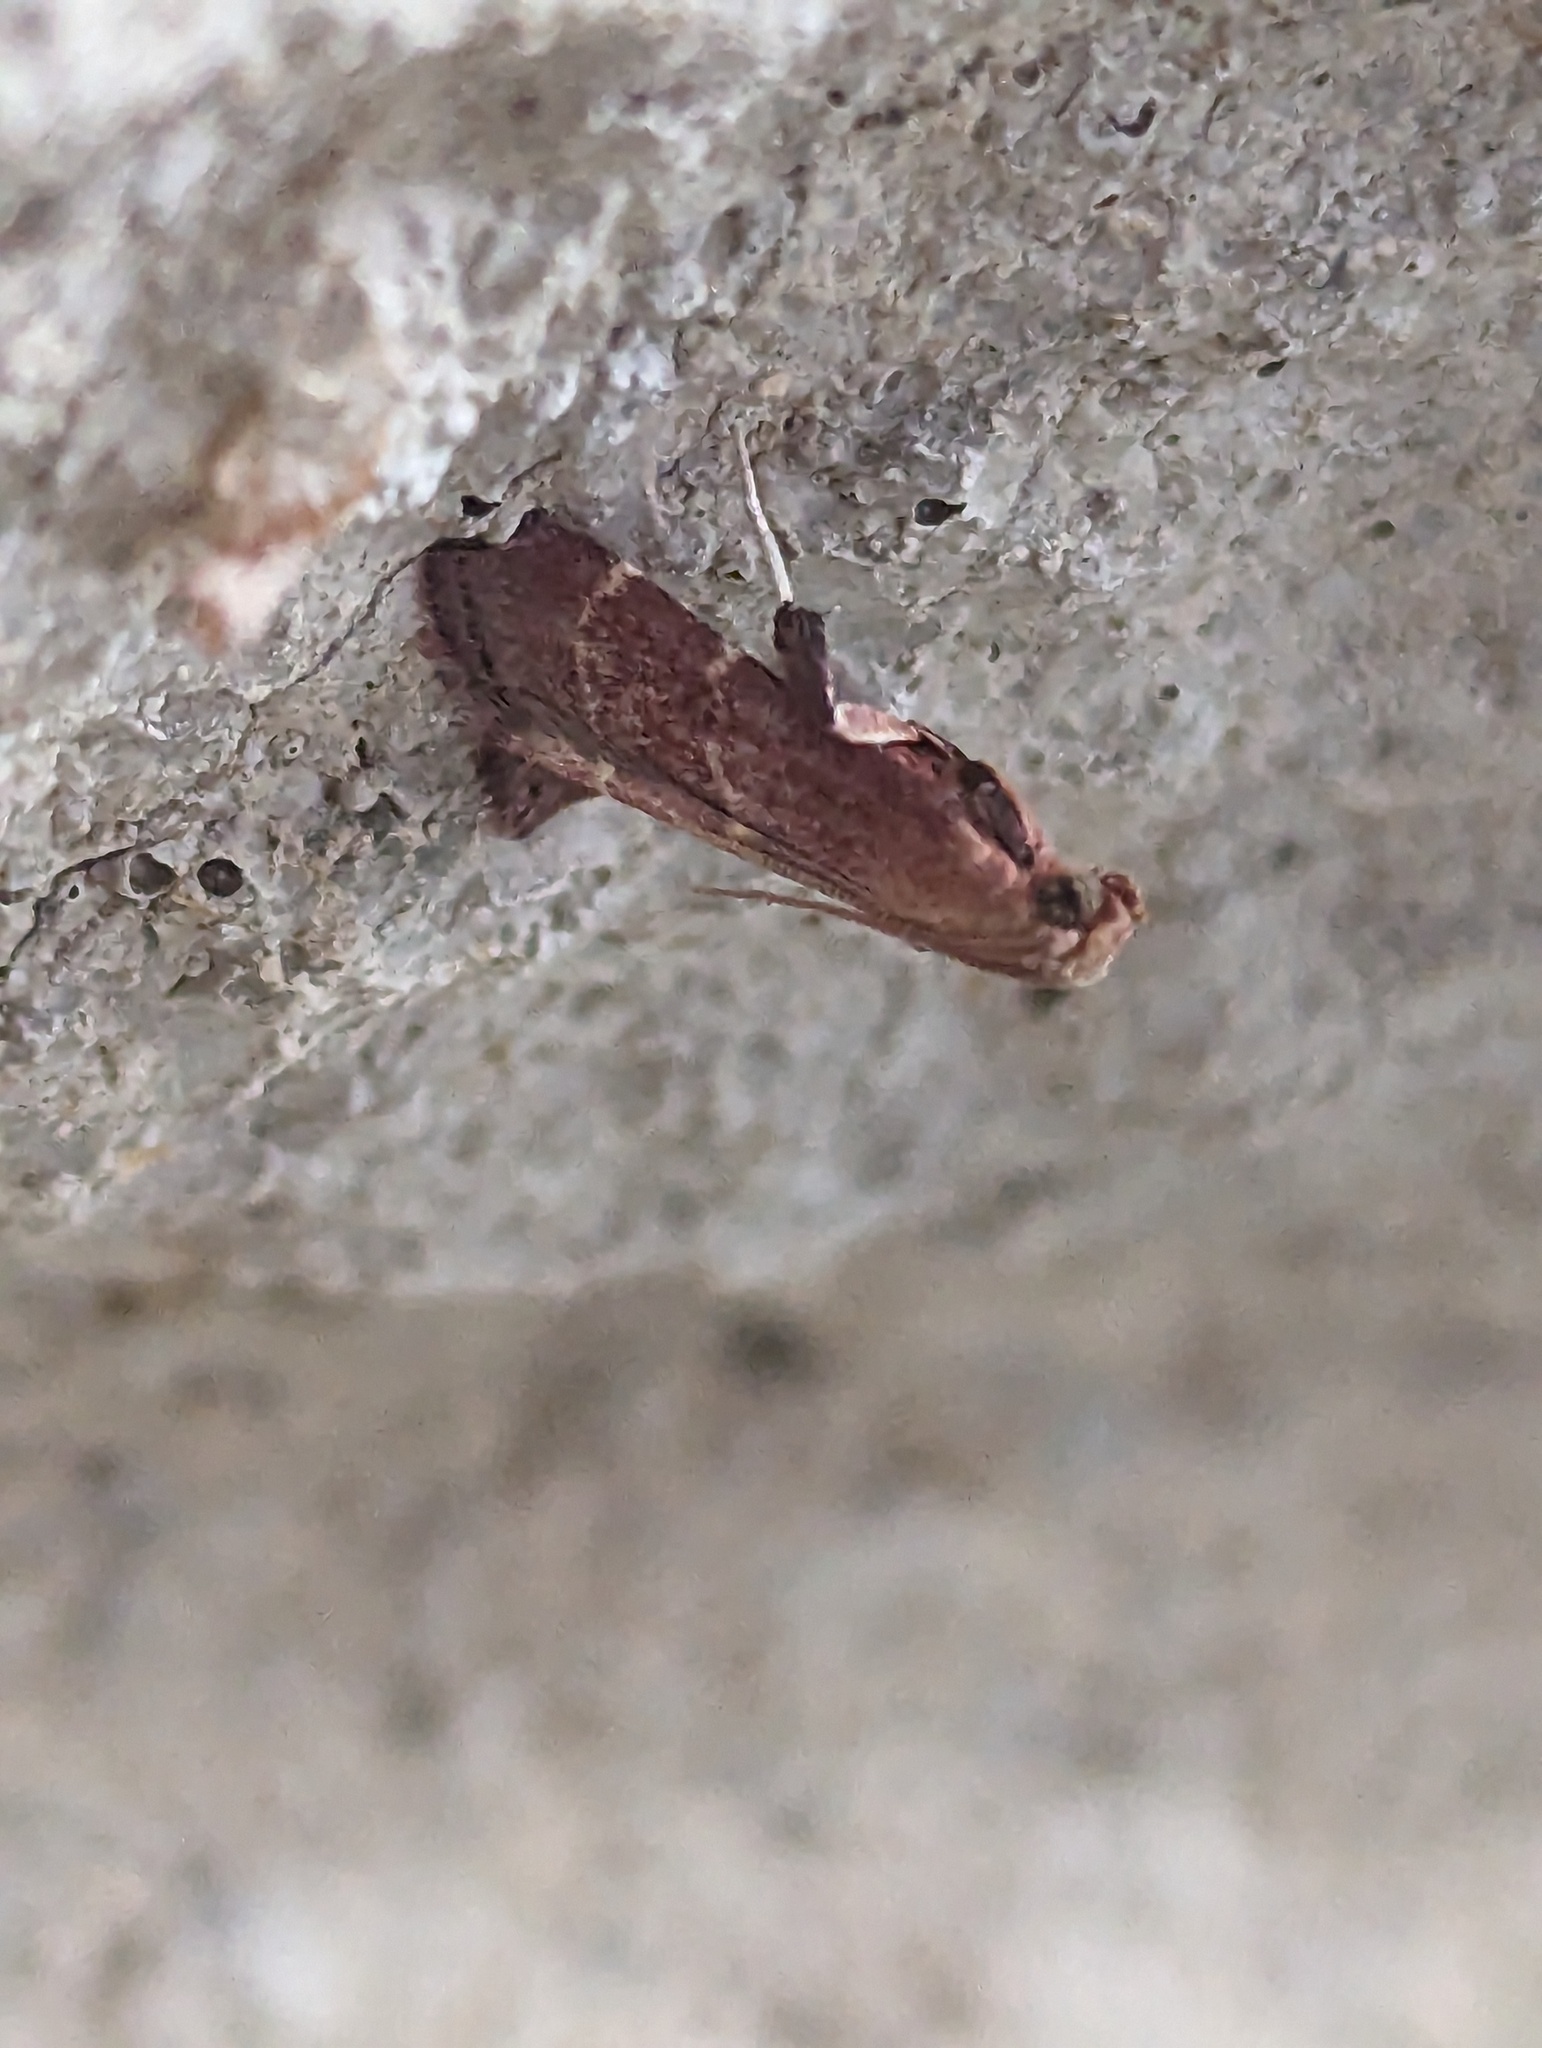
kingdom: Animalia
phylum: Arthropoda
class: Insecta
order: Lepidoptera
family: Pyralidae
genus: Arta
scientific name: Arta statalis
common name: Posturing arta moth
